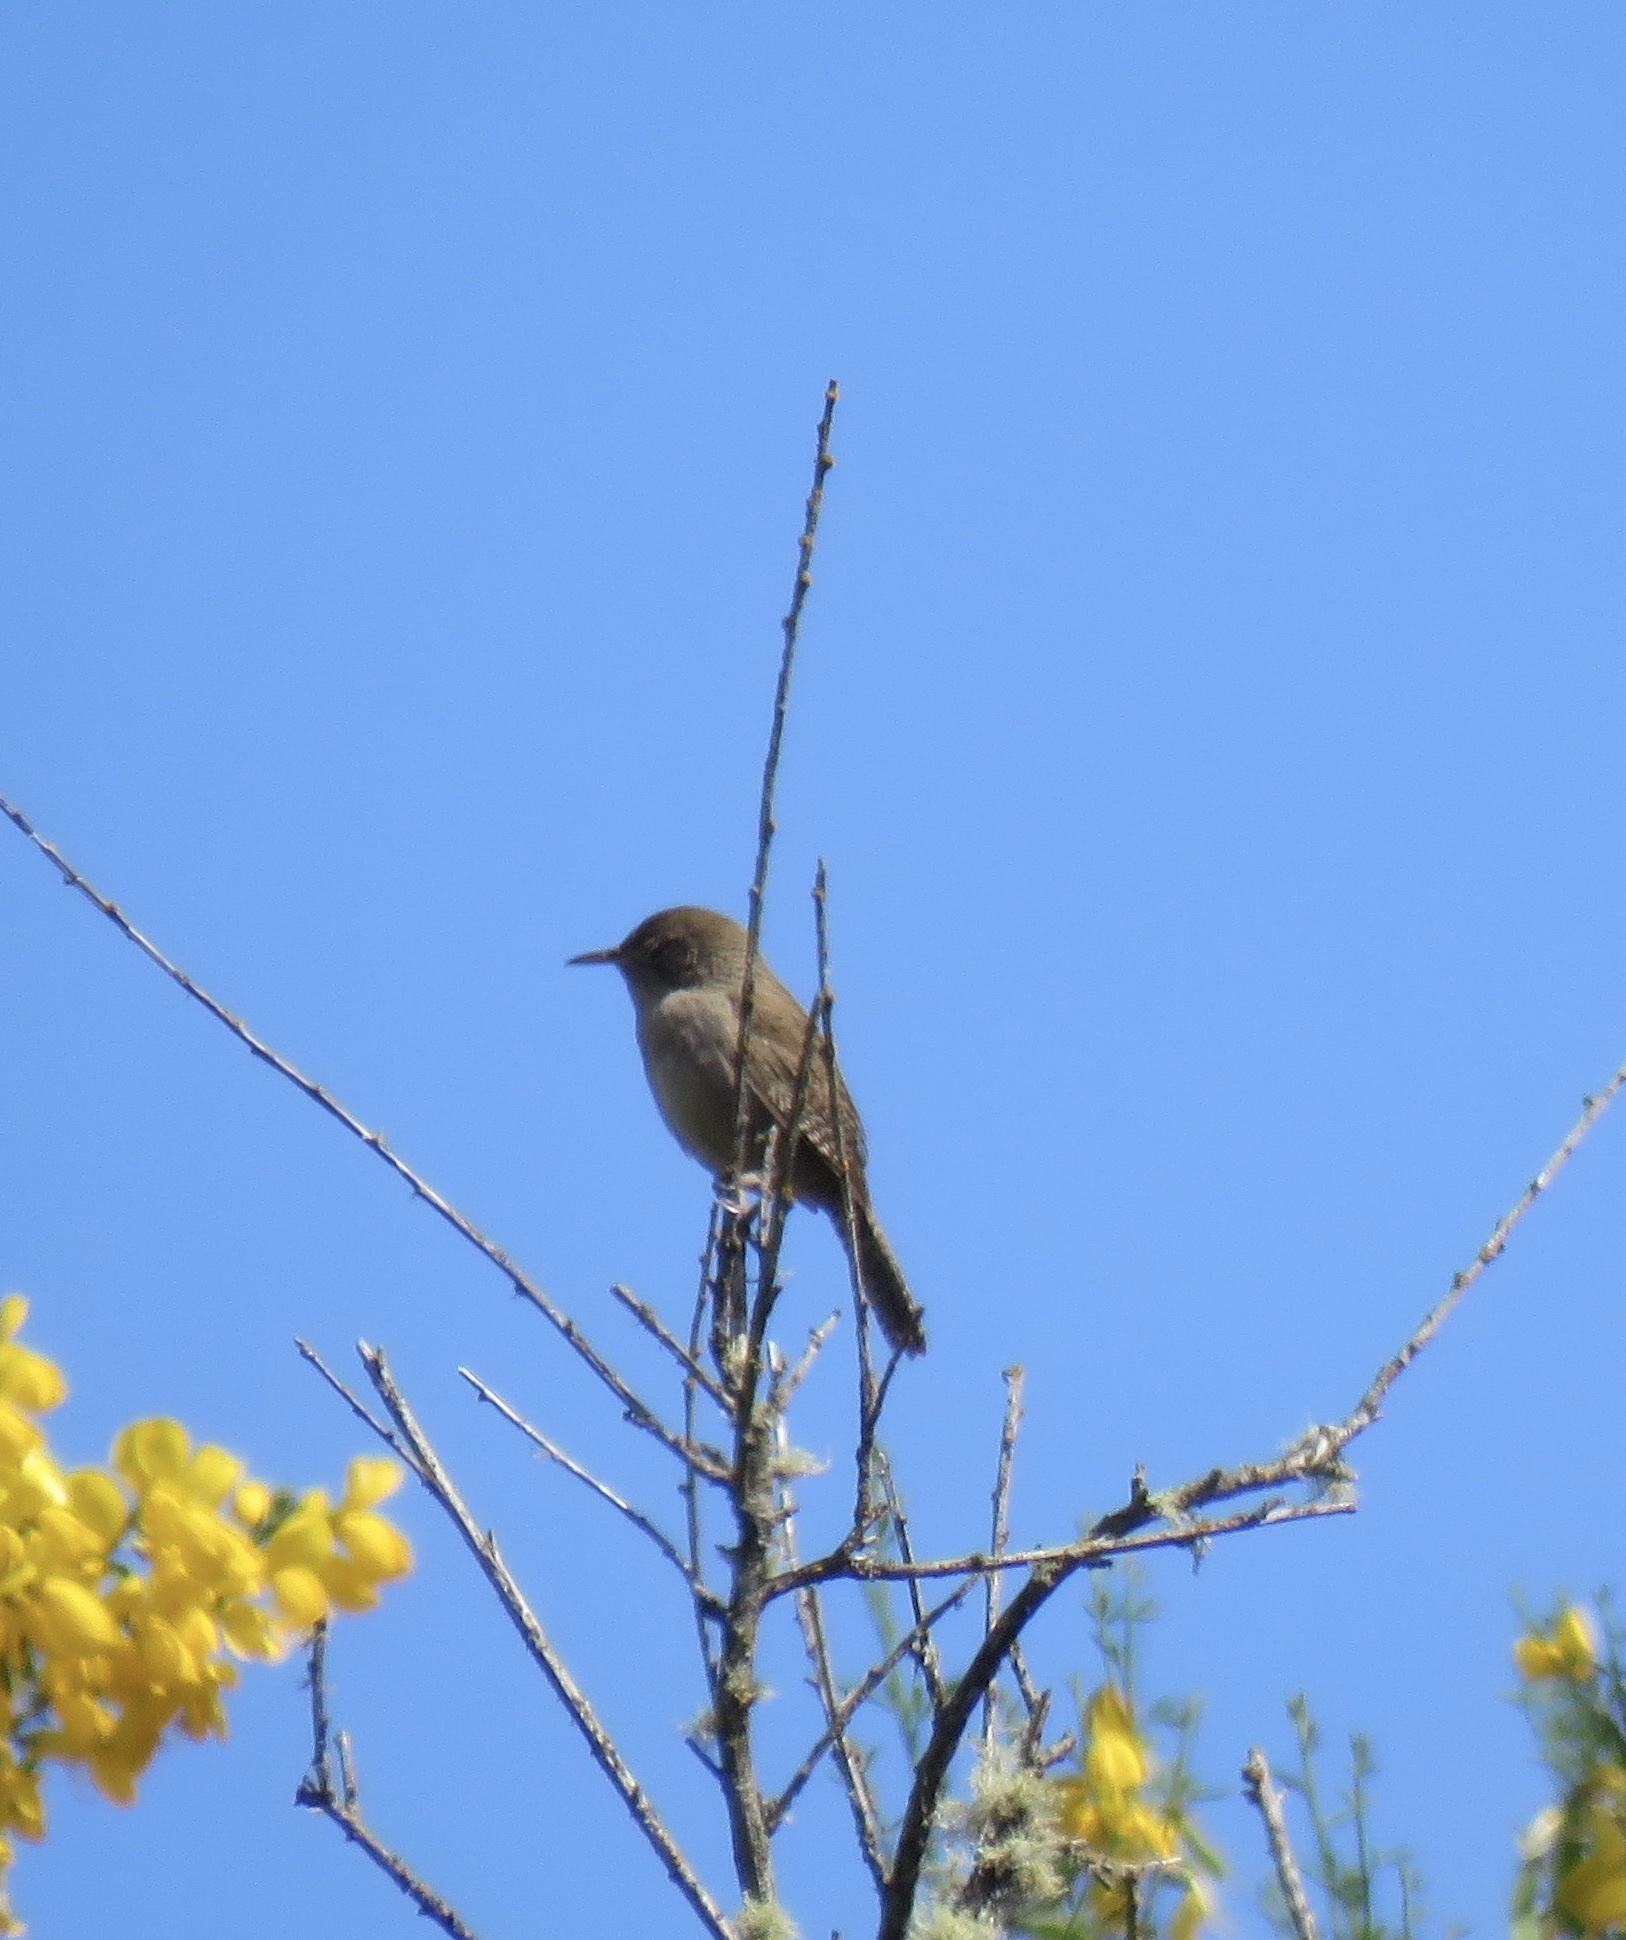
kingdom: Animalia
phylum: Chordata
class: Aves
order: Passeriformes
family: Troglodytidae
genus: Troglodytes
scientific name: Troglodytes aedon
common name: House wren
